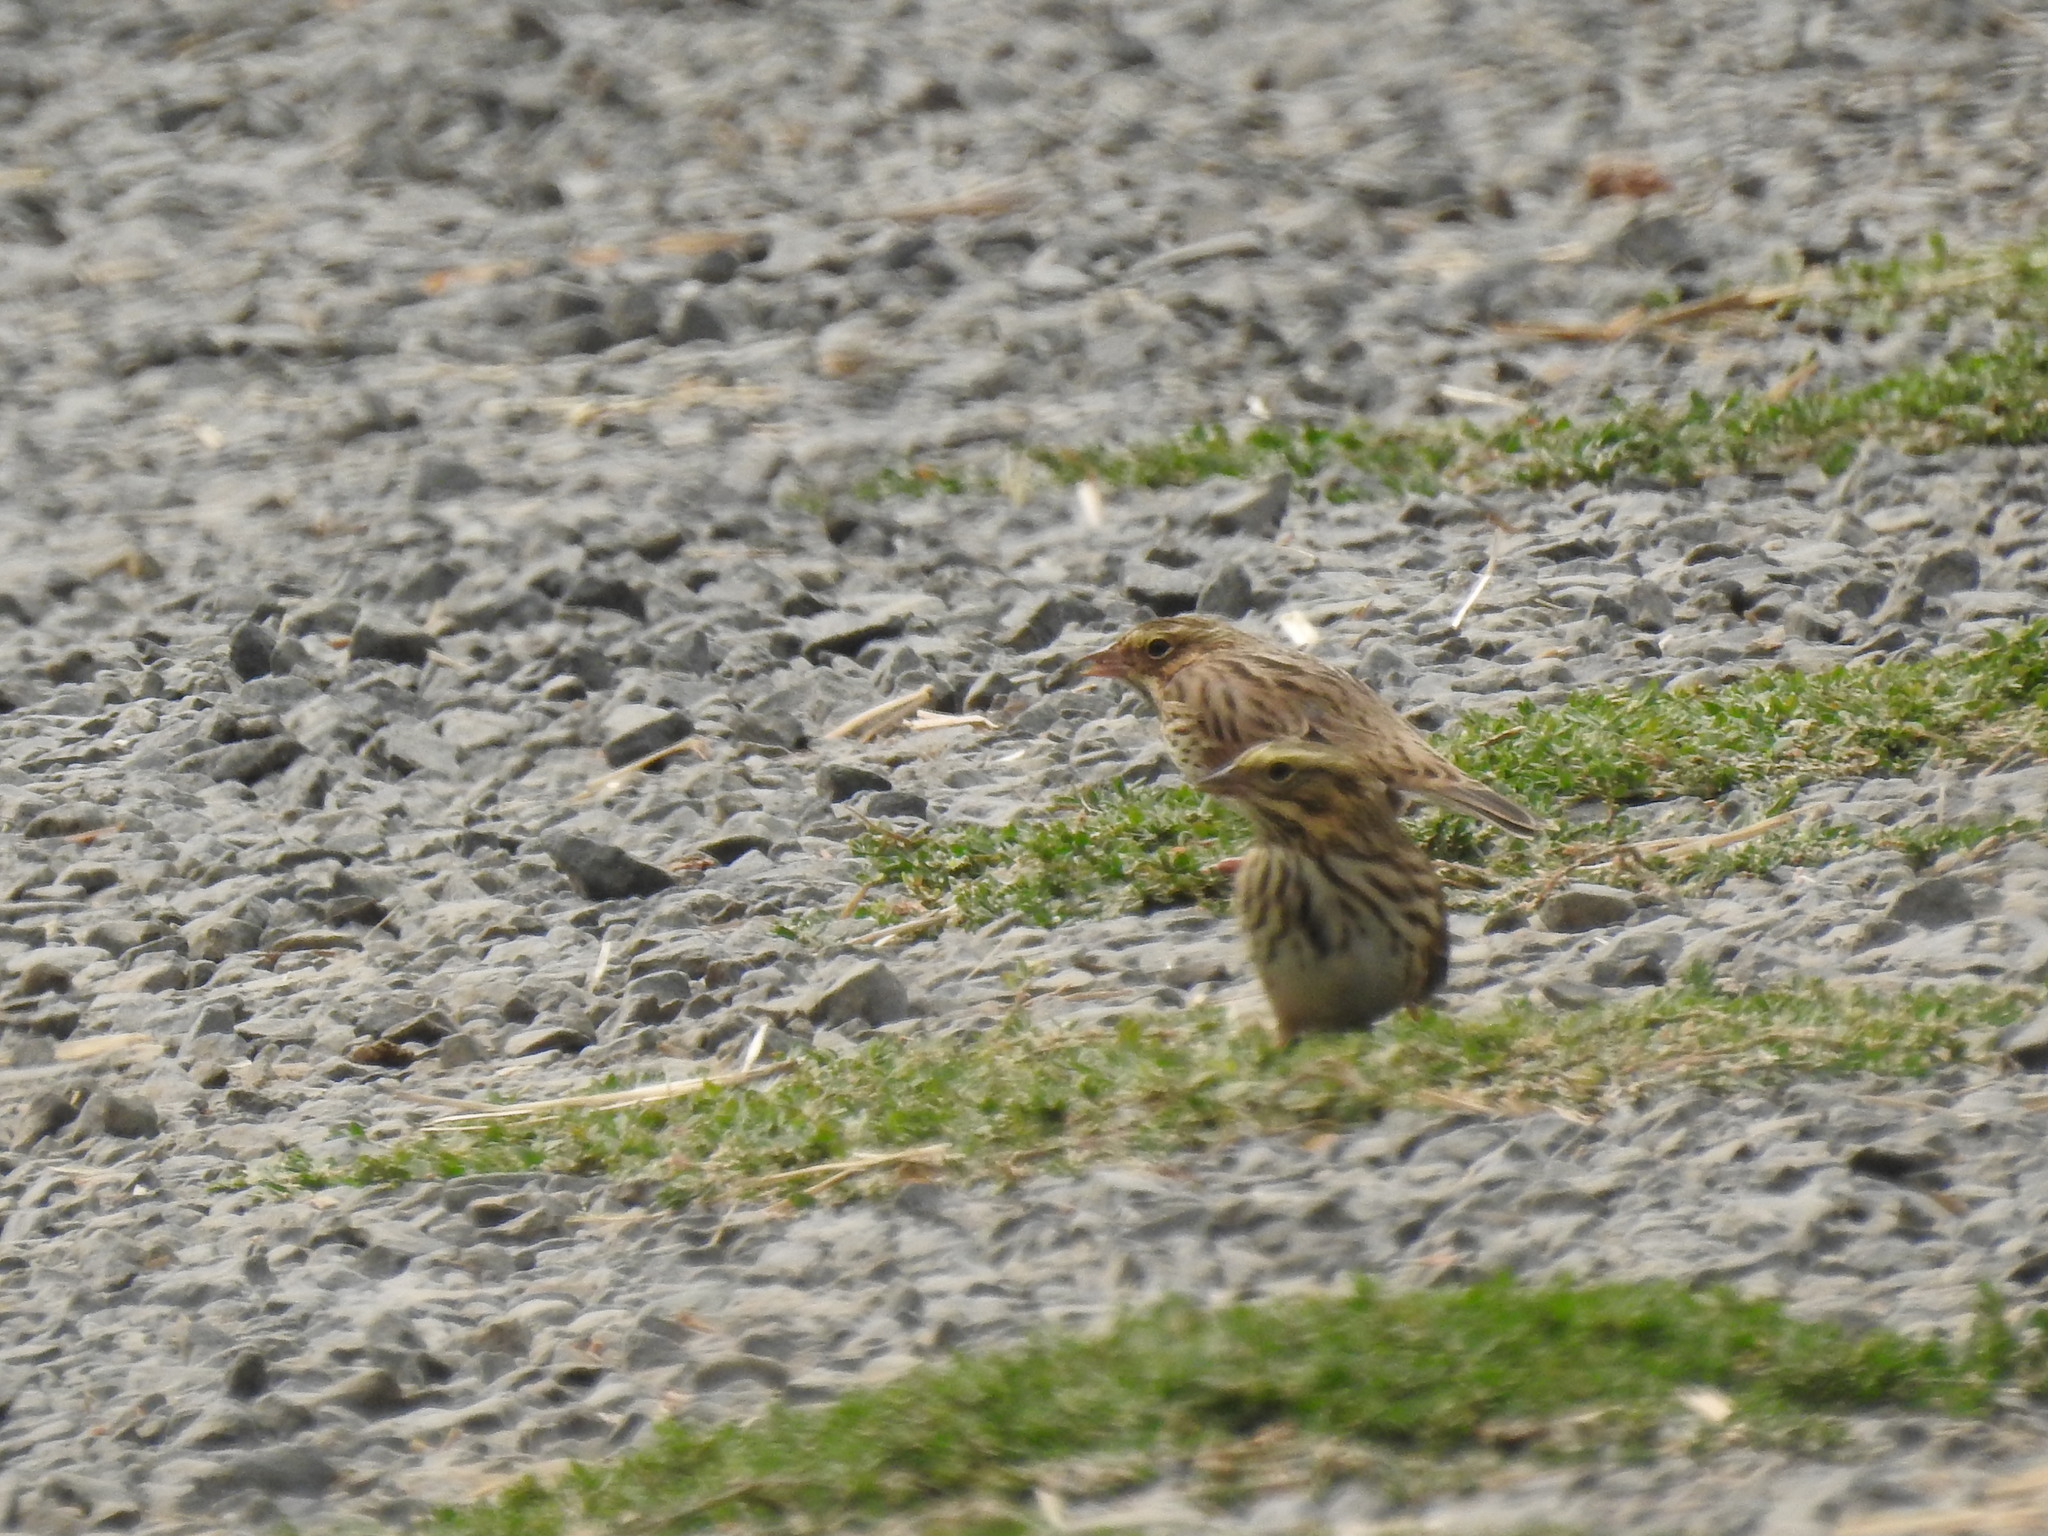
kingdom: Animalia
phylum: Chordata
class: Aves
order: Passeriformes
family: Passerellidae
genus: Passerculus
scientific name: Passerculus sandwichensis
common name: Savannah sparrow
